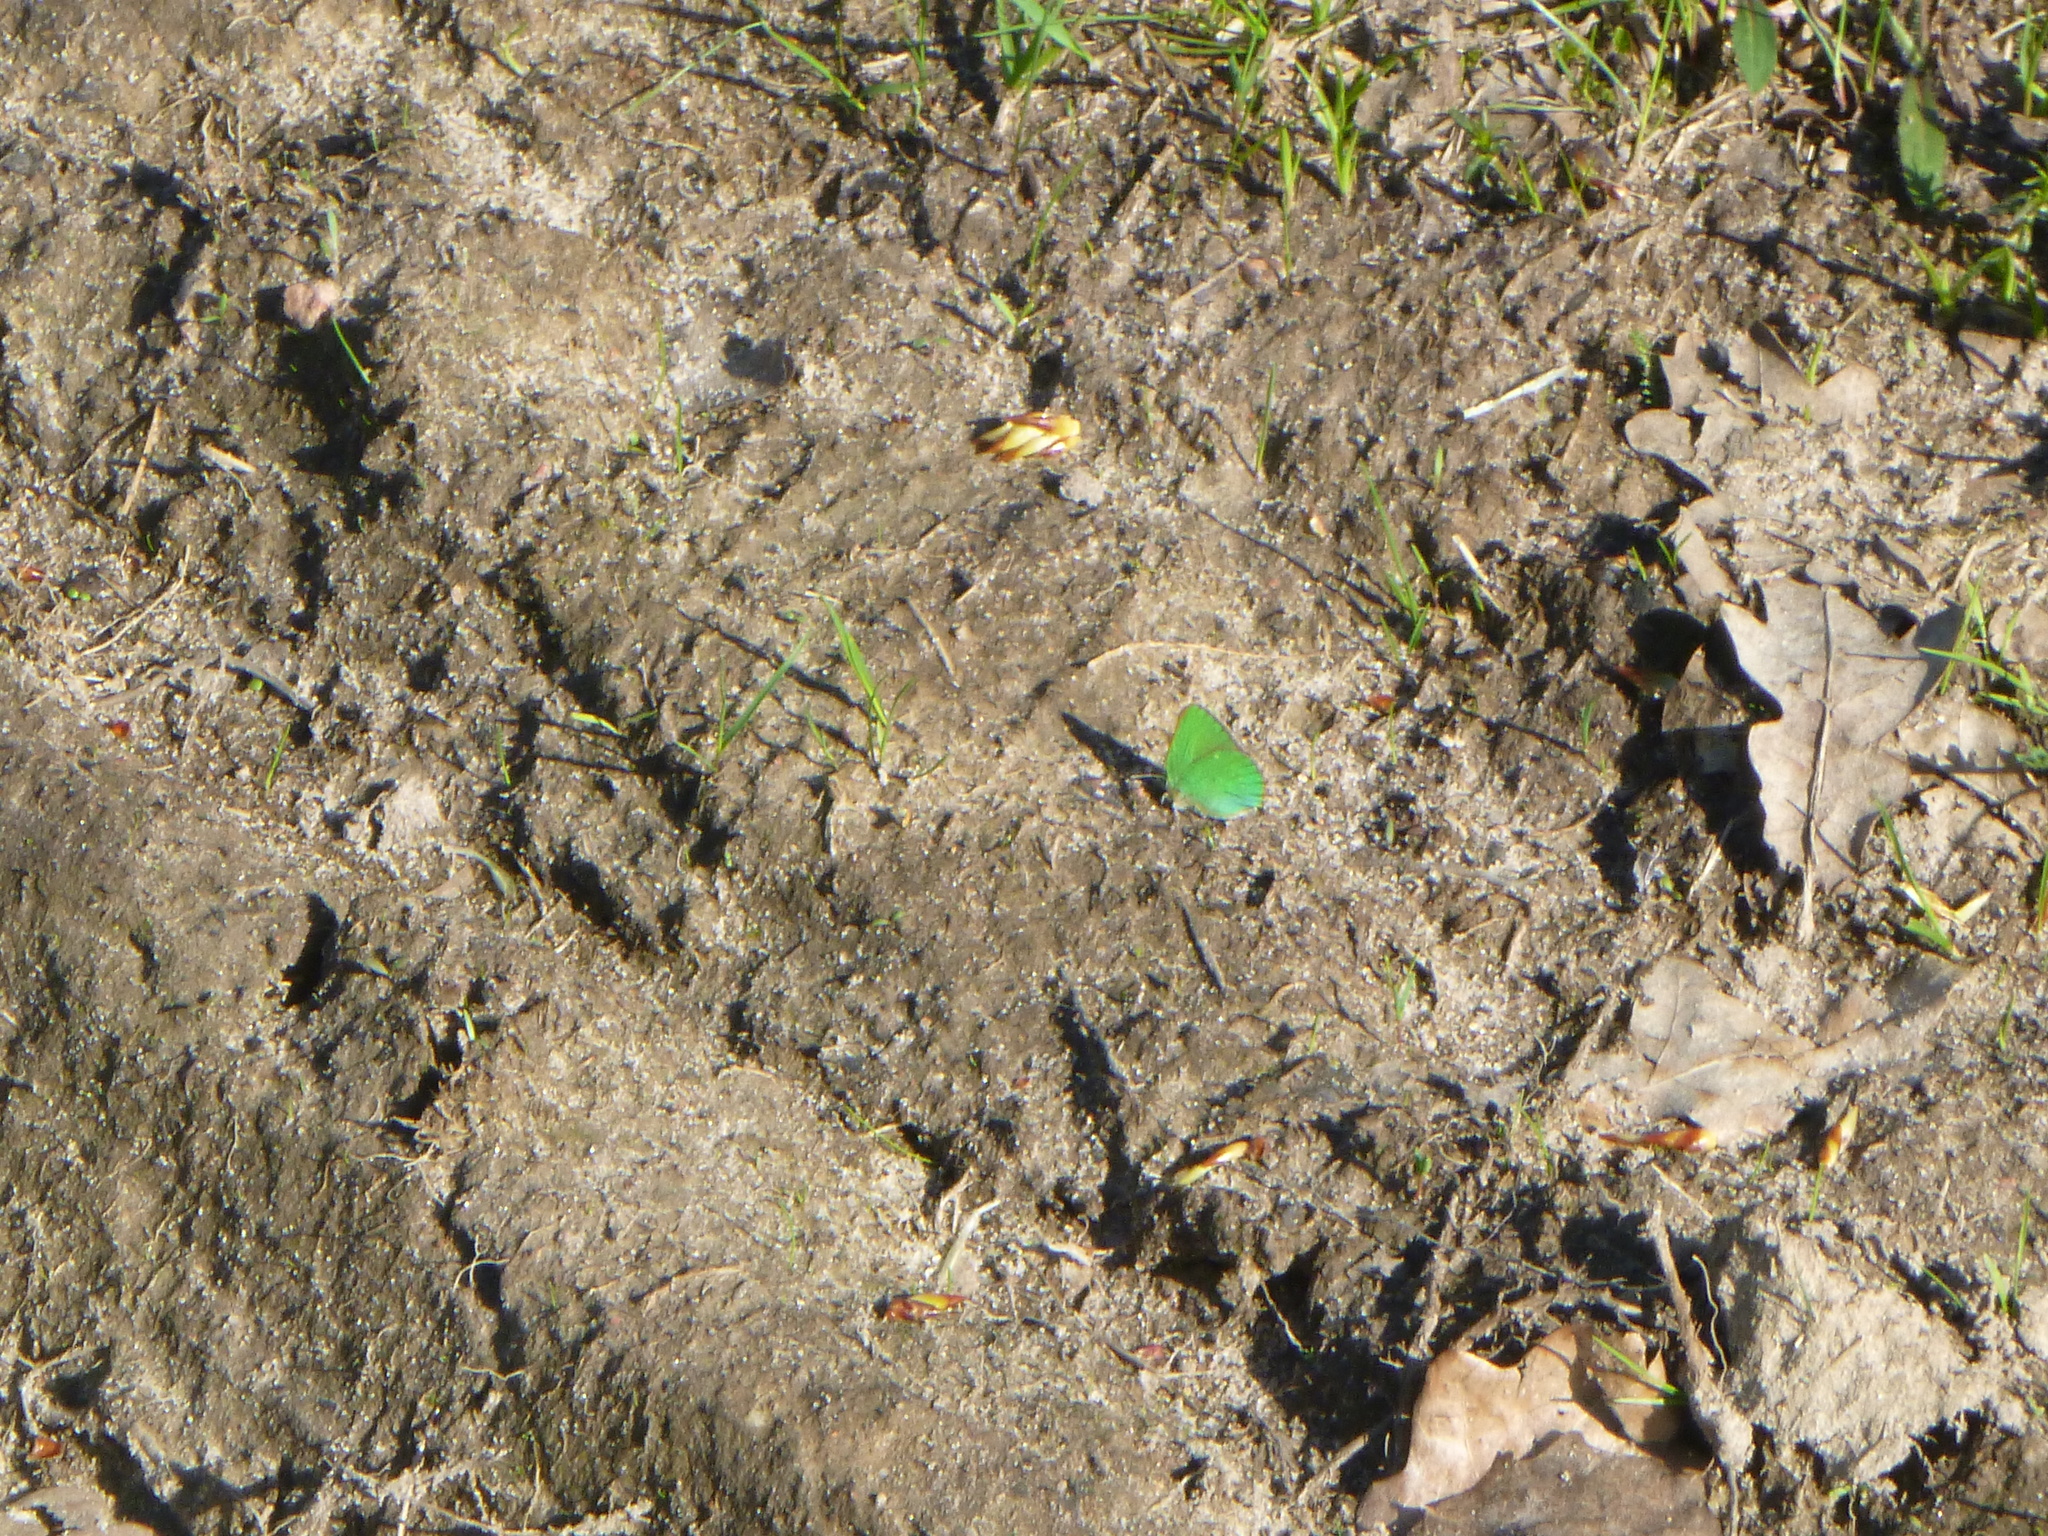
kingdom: Animalia
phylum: Arthropoda
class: Insecta
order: Lepidoptera
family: Lycaenidae
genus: Callophrys
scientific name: Callophrys rubi
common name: Green hairstreak
